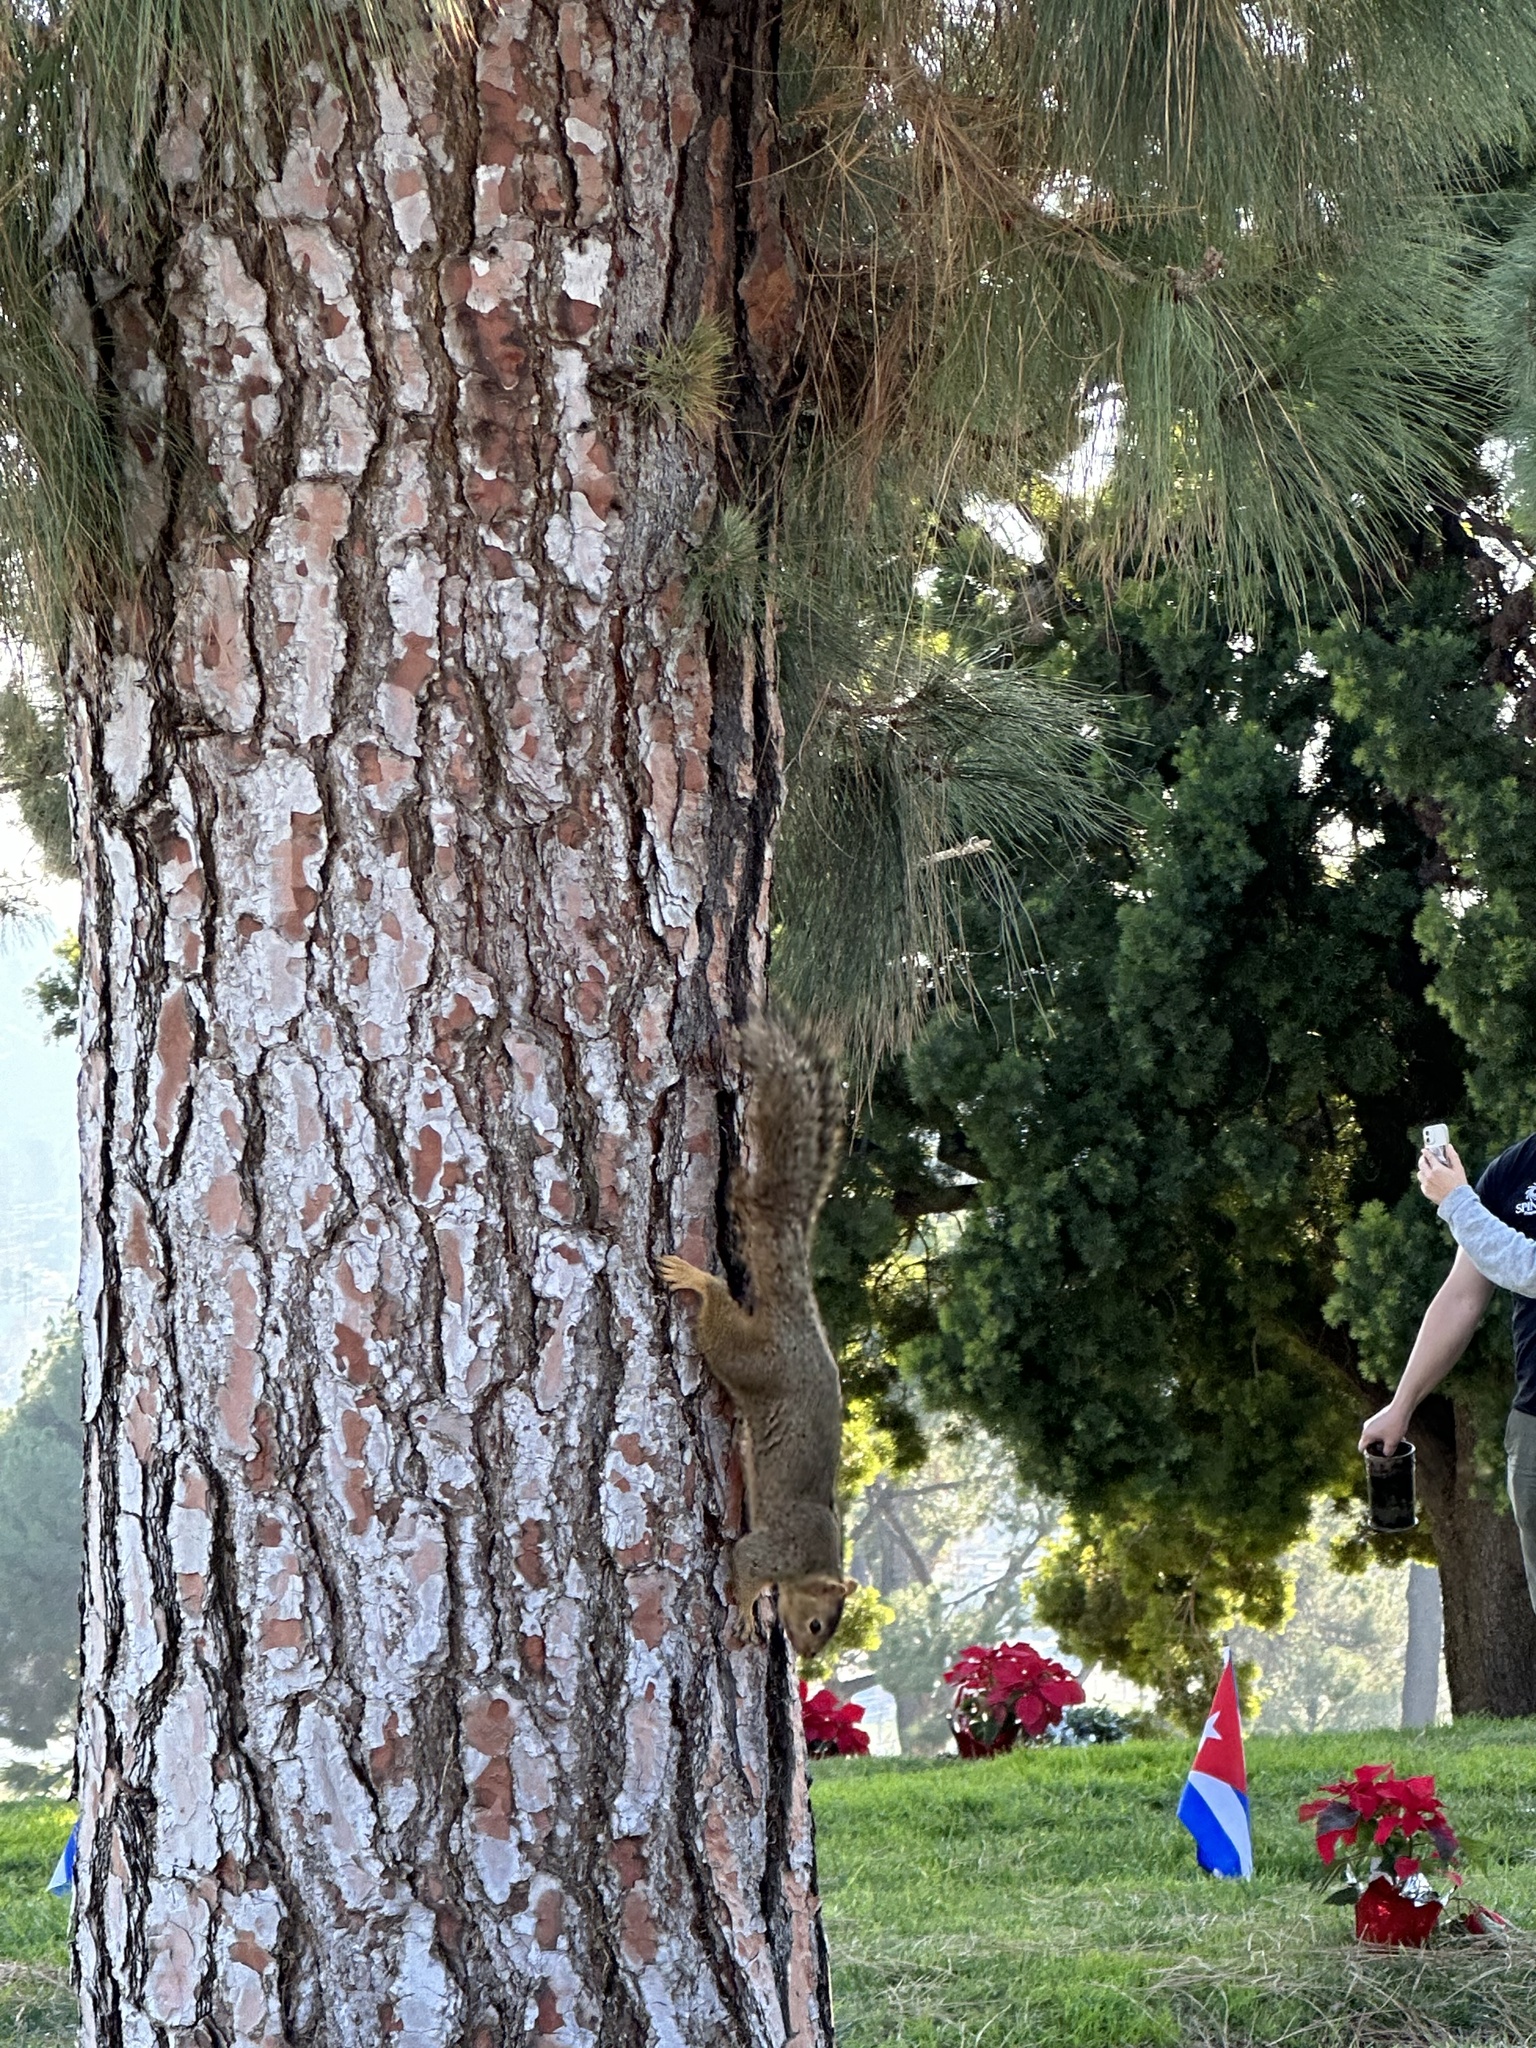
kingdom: Animalia
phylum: Chordata
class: Mammalia
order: Rodentia
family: Sciuridae
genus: Sciurus
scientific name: Sciurus niger
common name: Fox squirrel
